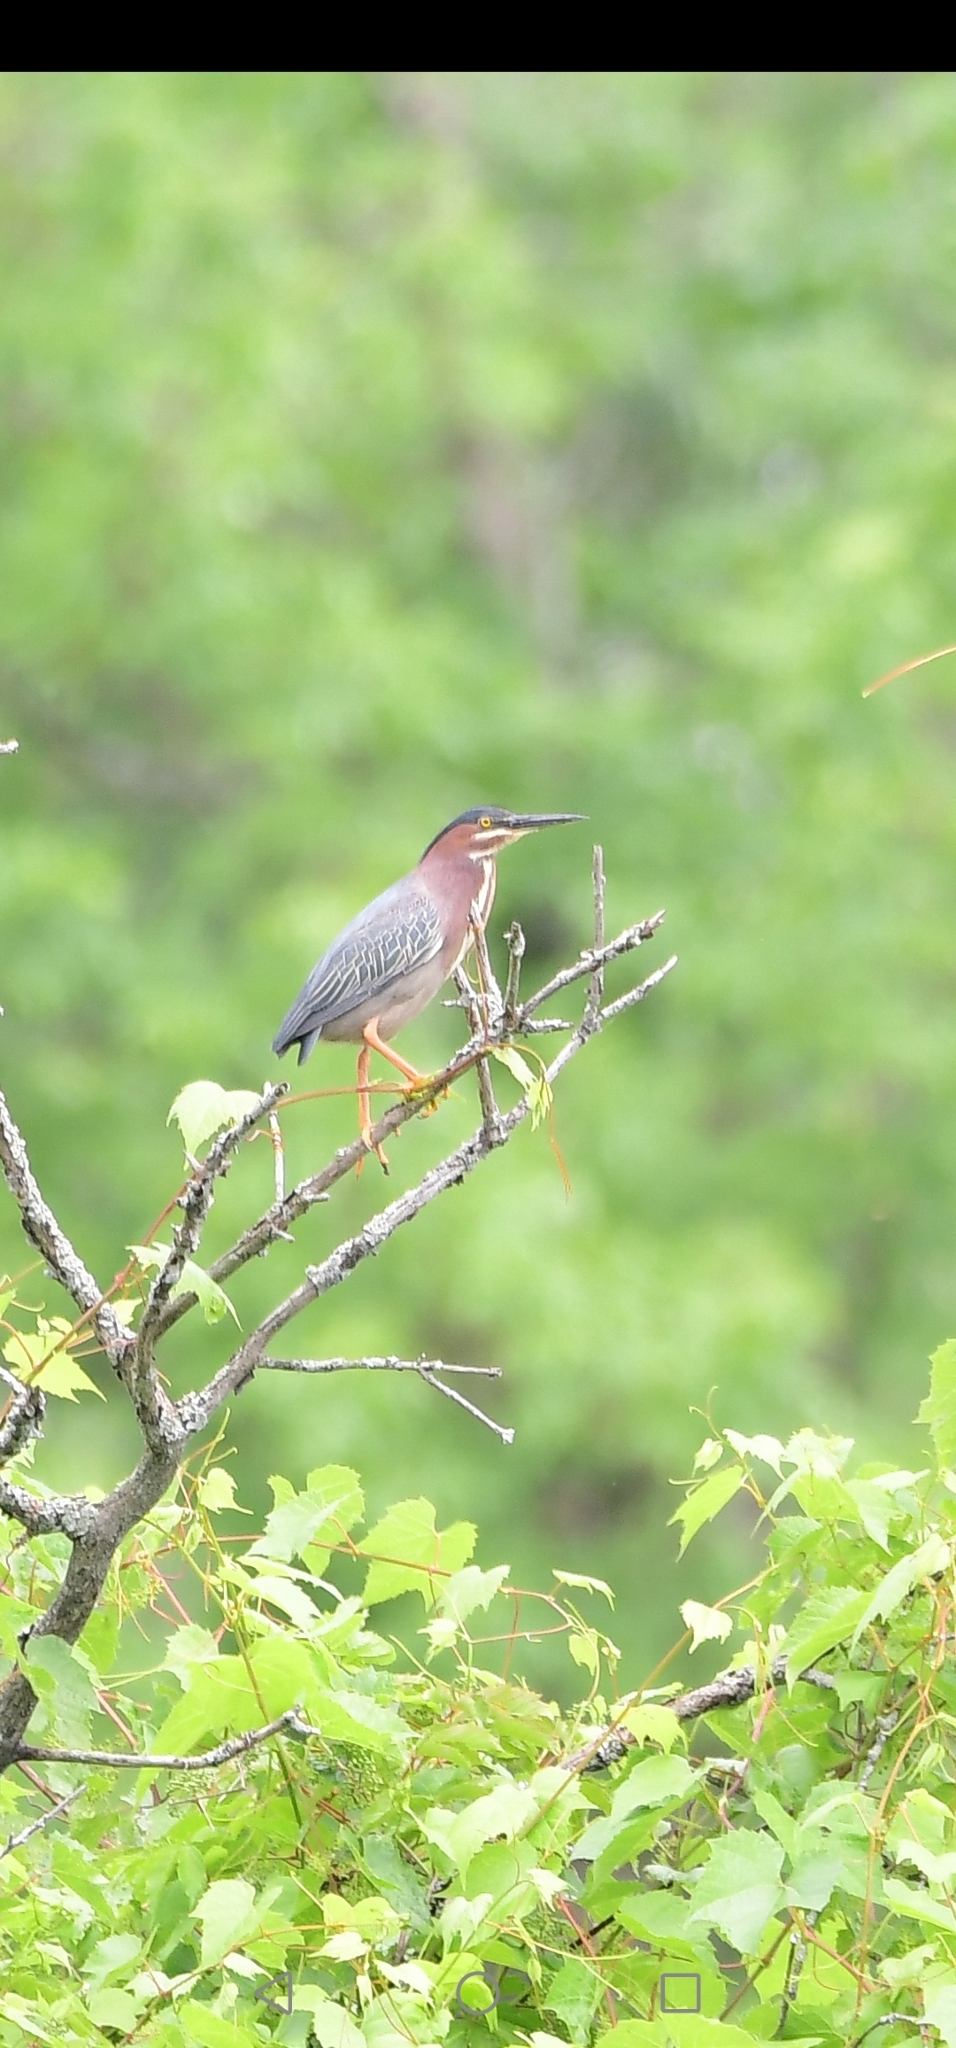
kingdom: Animalia
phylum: Chordata
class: Aves
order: Pelecaniformes
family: Ardeidae
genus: Butorides
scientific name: Butorides virescens
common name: Green heron
